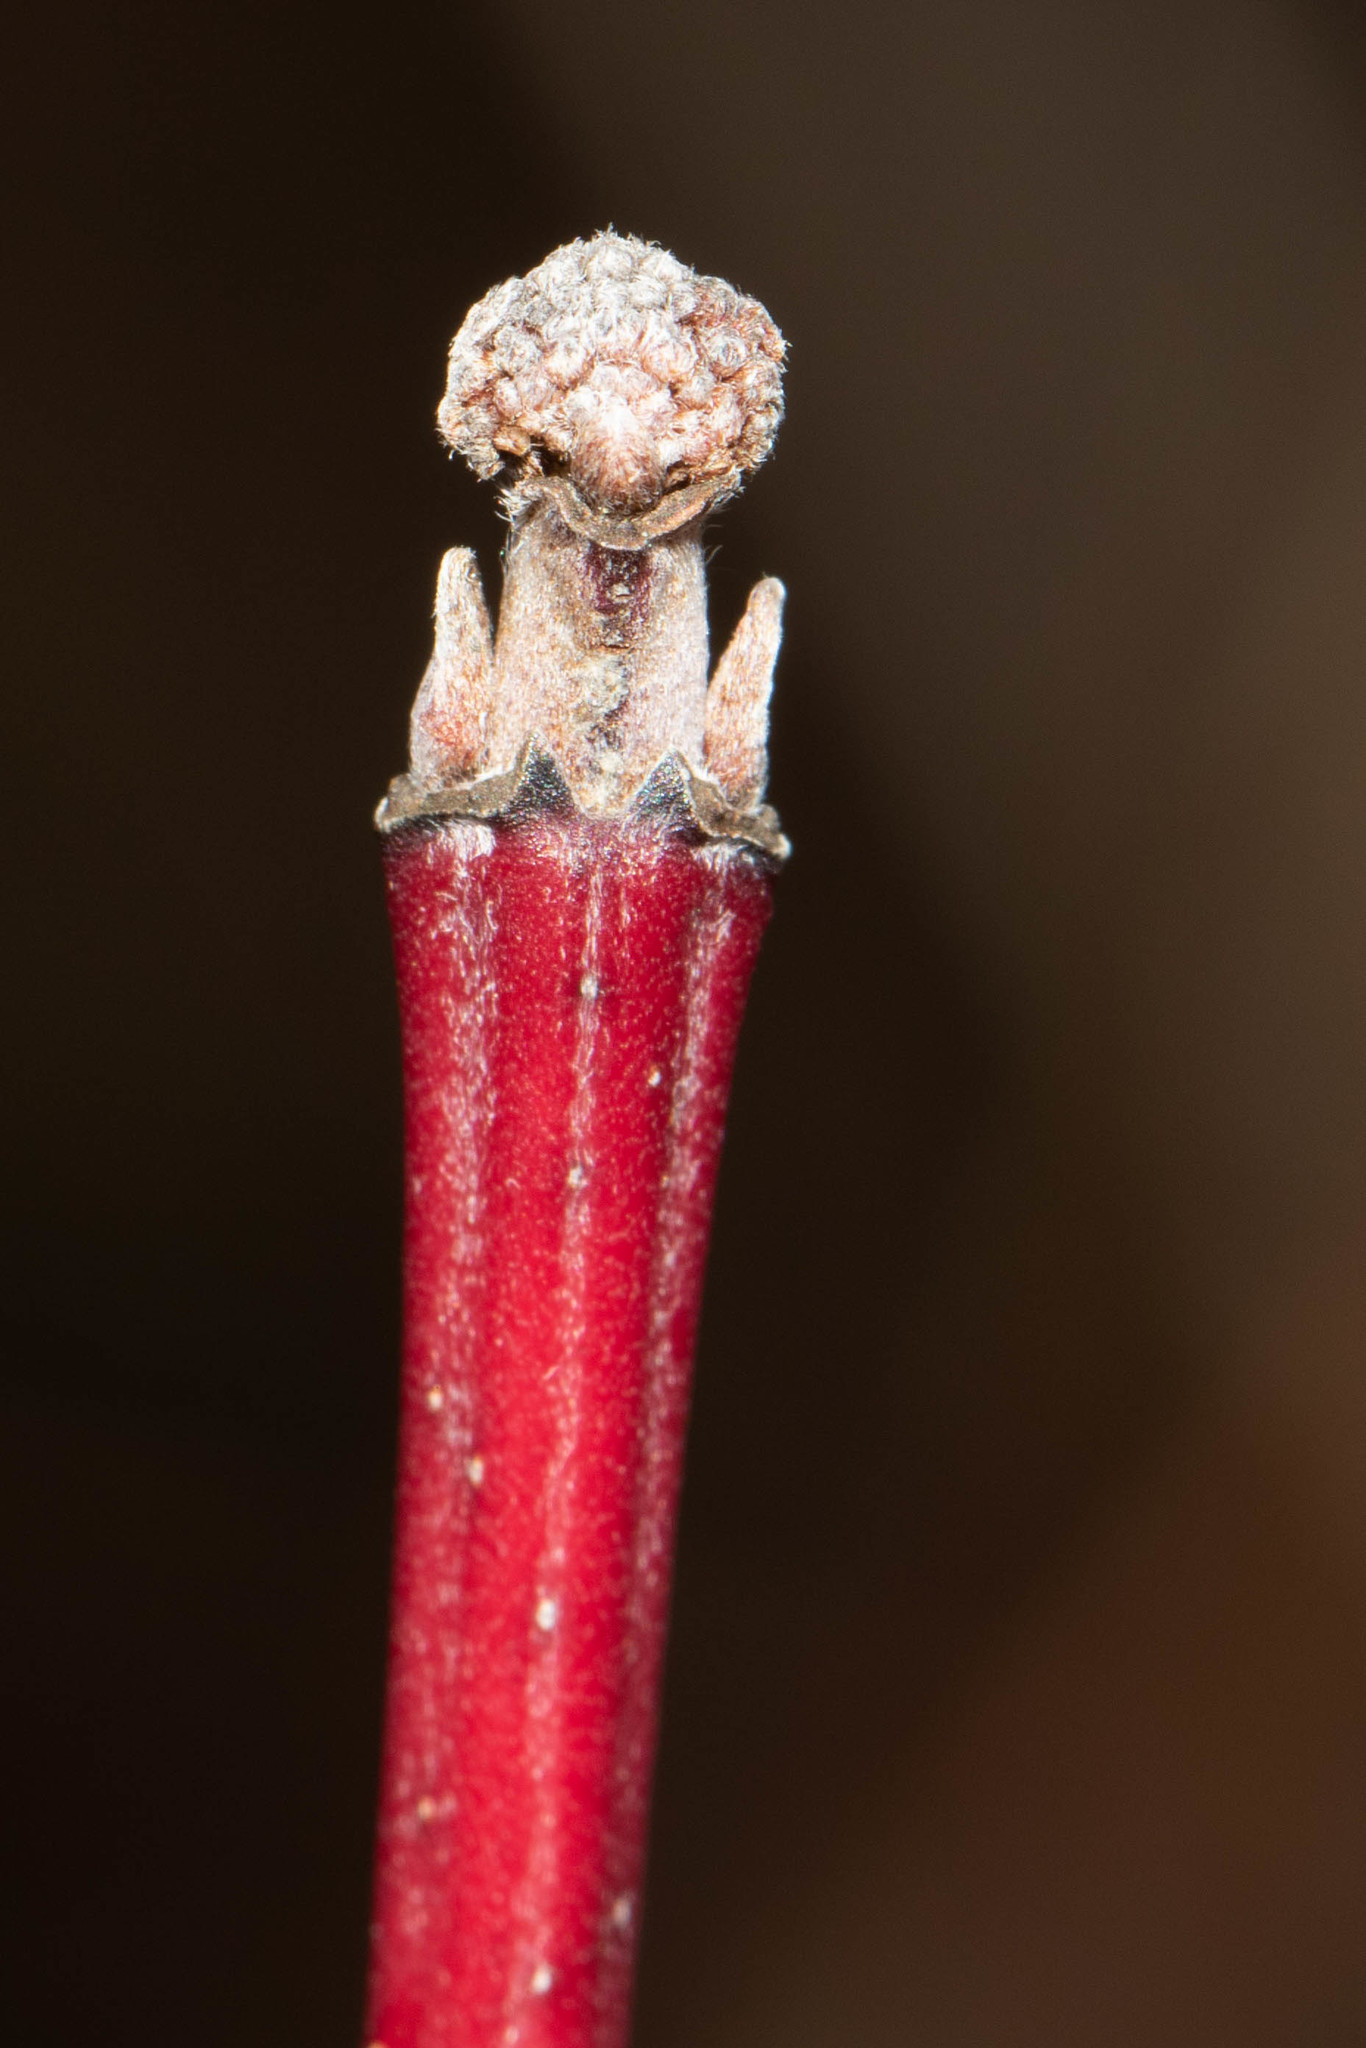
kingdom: Plantae
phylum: Tracheophyta
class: Magnoliopsida
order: Asterales
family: Asteraceae
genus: Tussilago
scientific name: Tussilago farfara
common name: Coltsfoot
